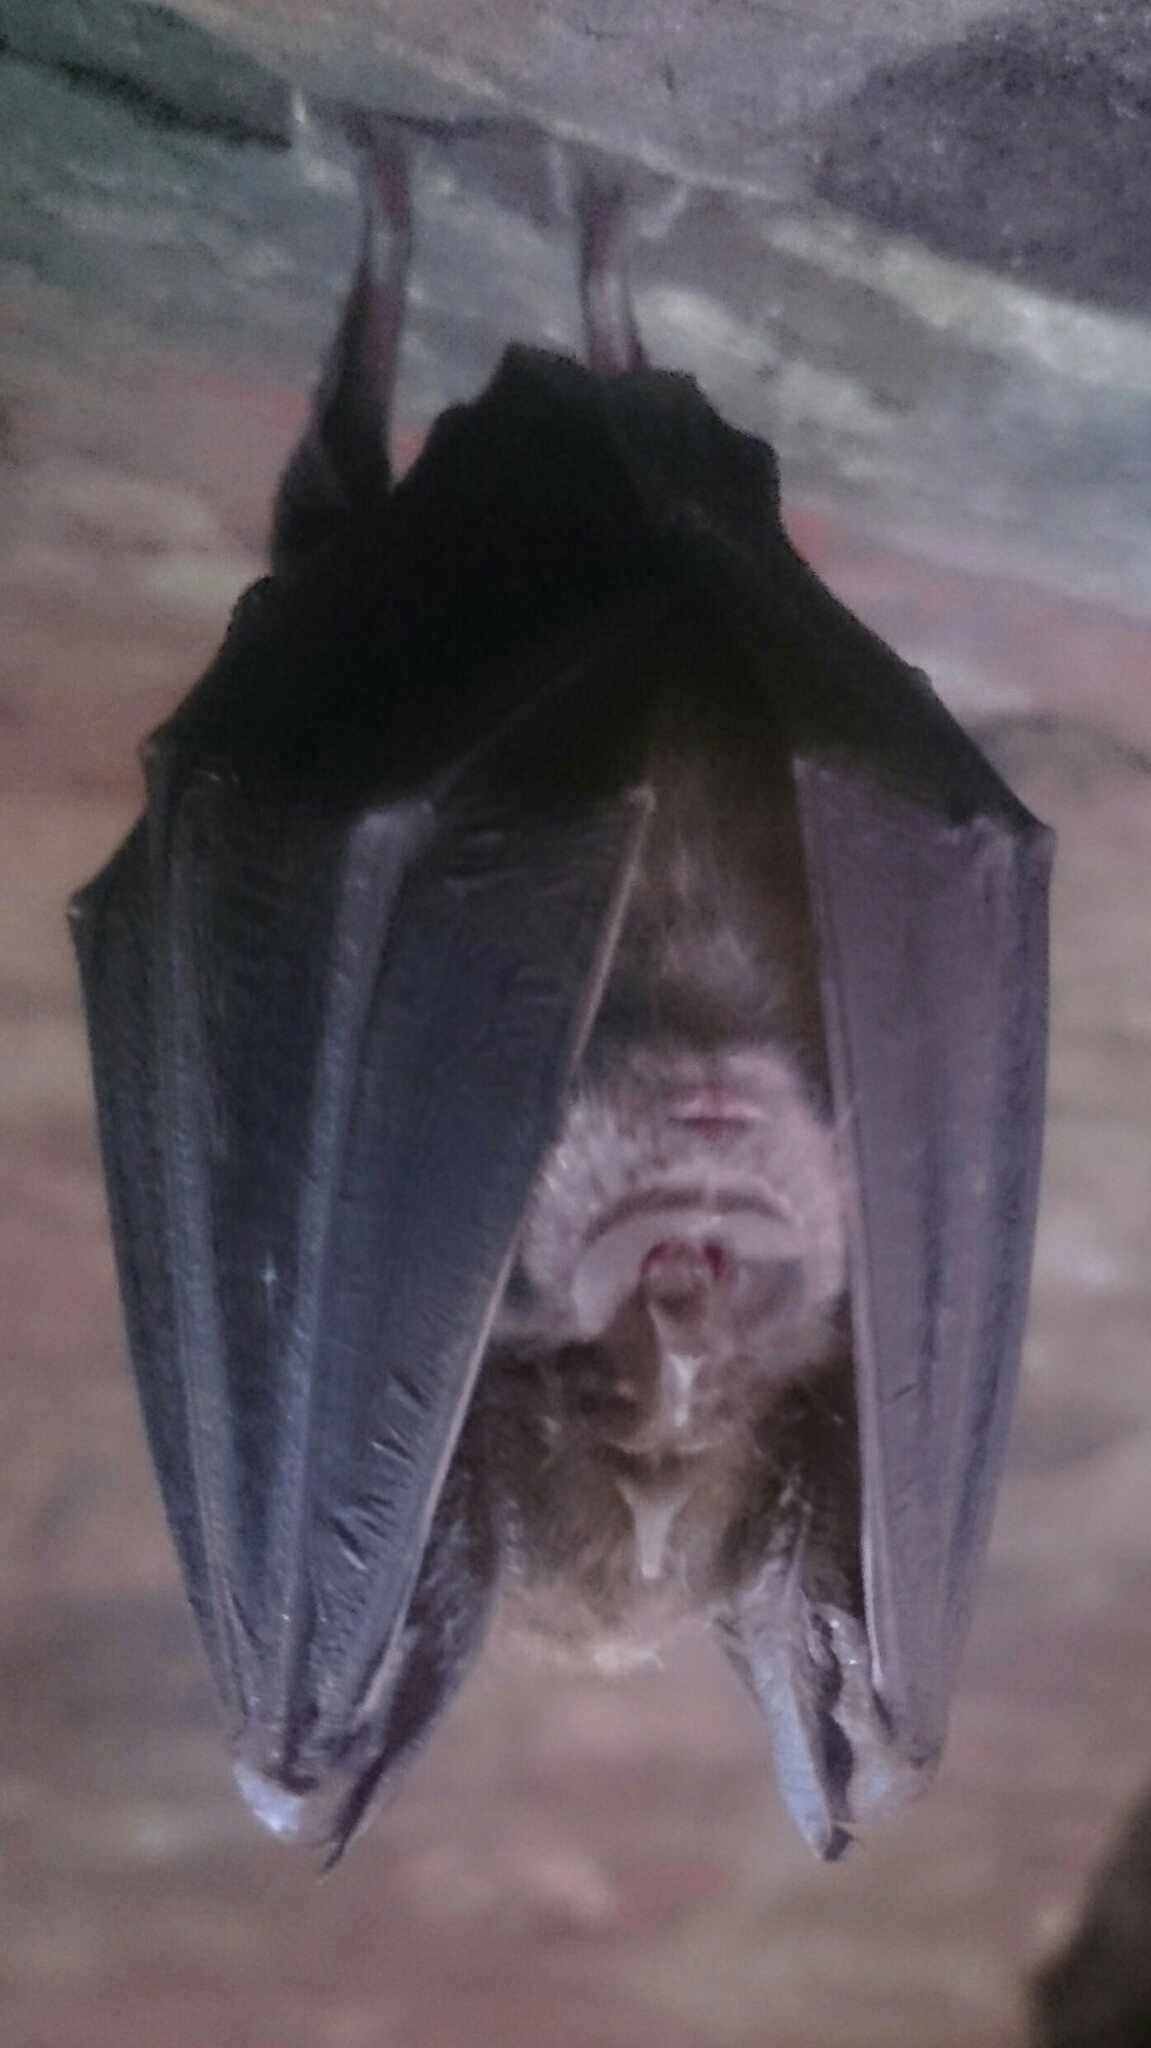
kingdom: Animalia
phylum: Chordata
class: Mammalia
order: Chiroptera
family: Rhinolophidae
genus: Rhinolophus
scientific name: Rhinolophus ferrumequinum
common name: Greater horseshoe bat
